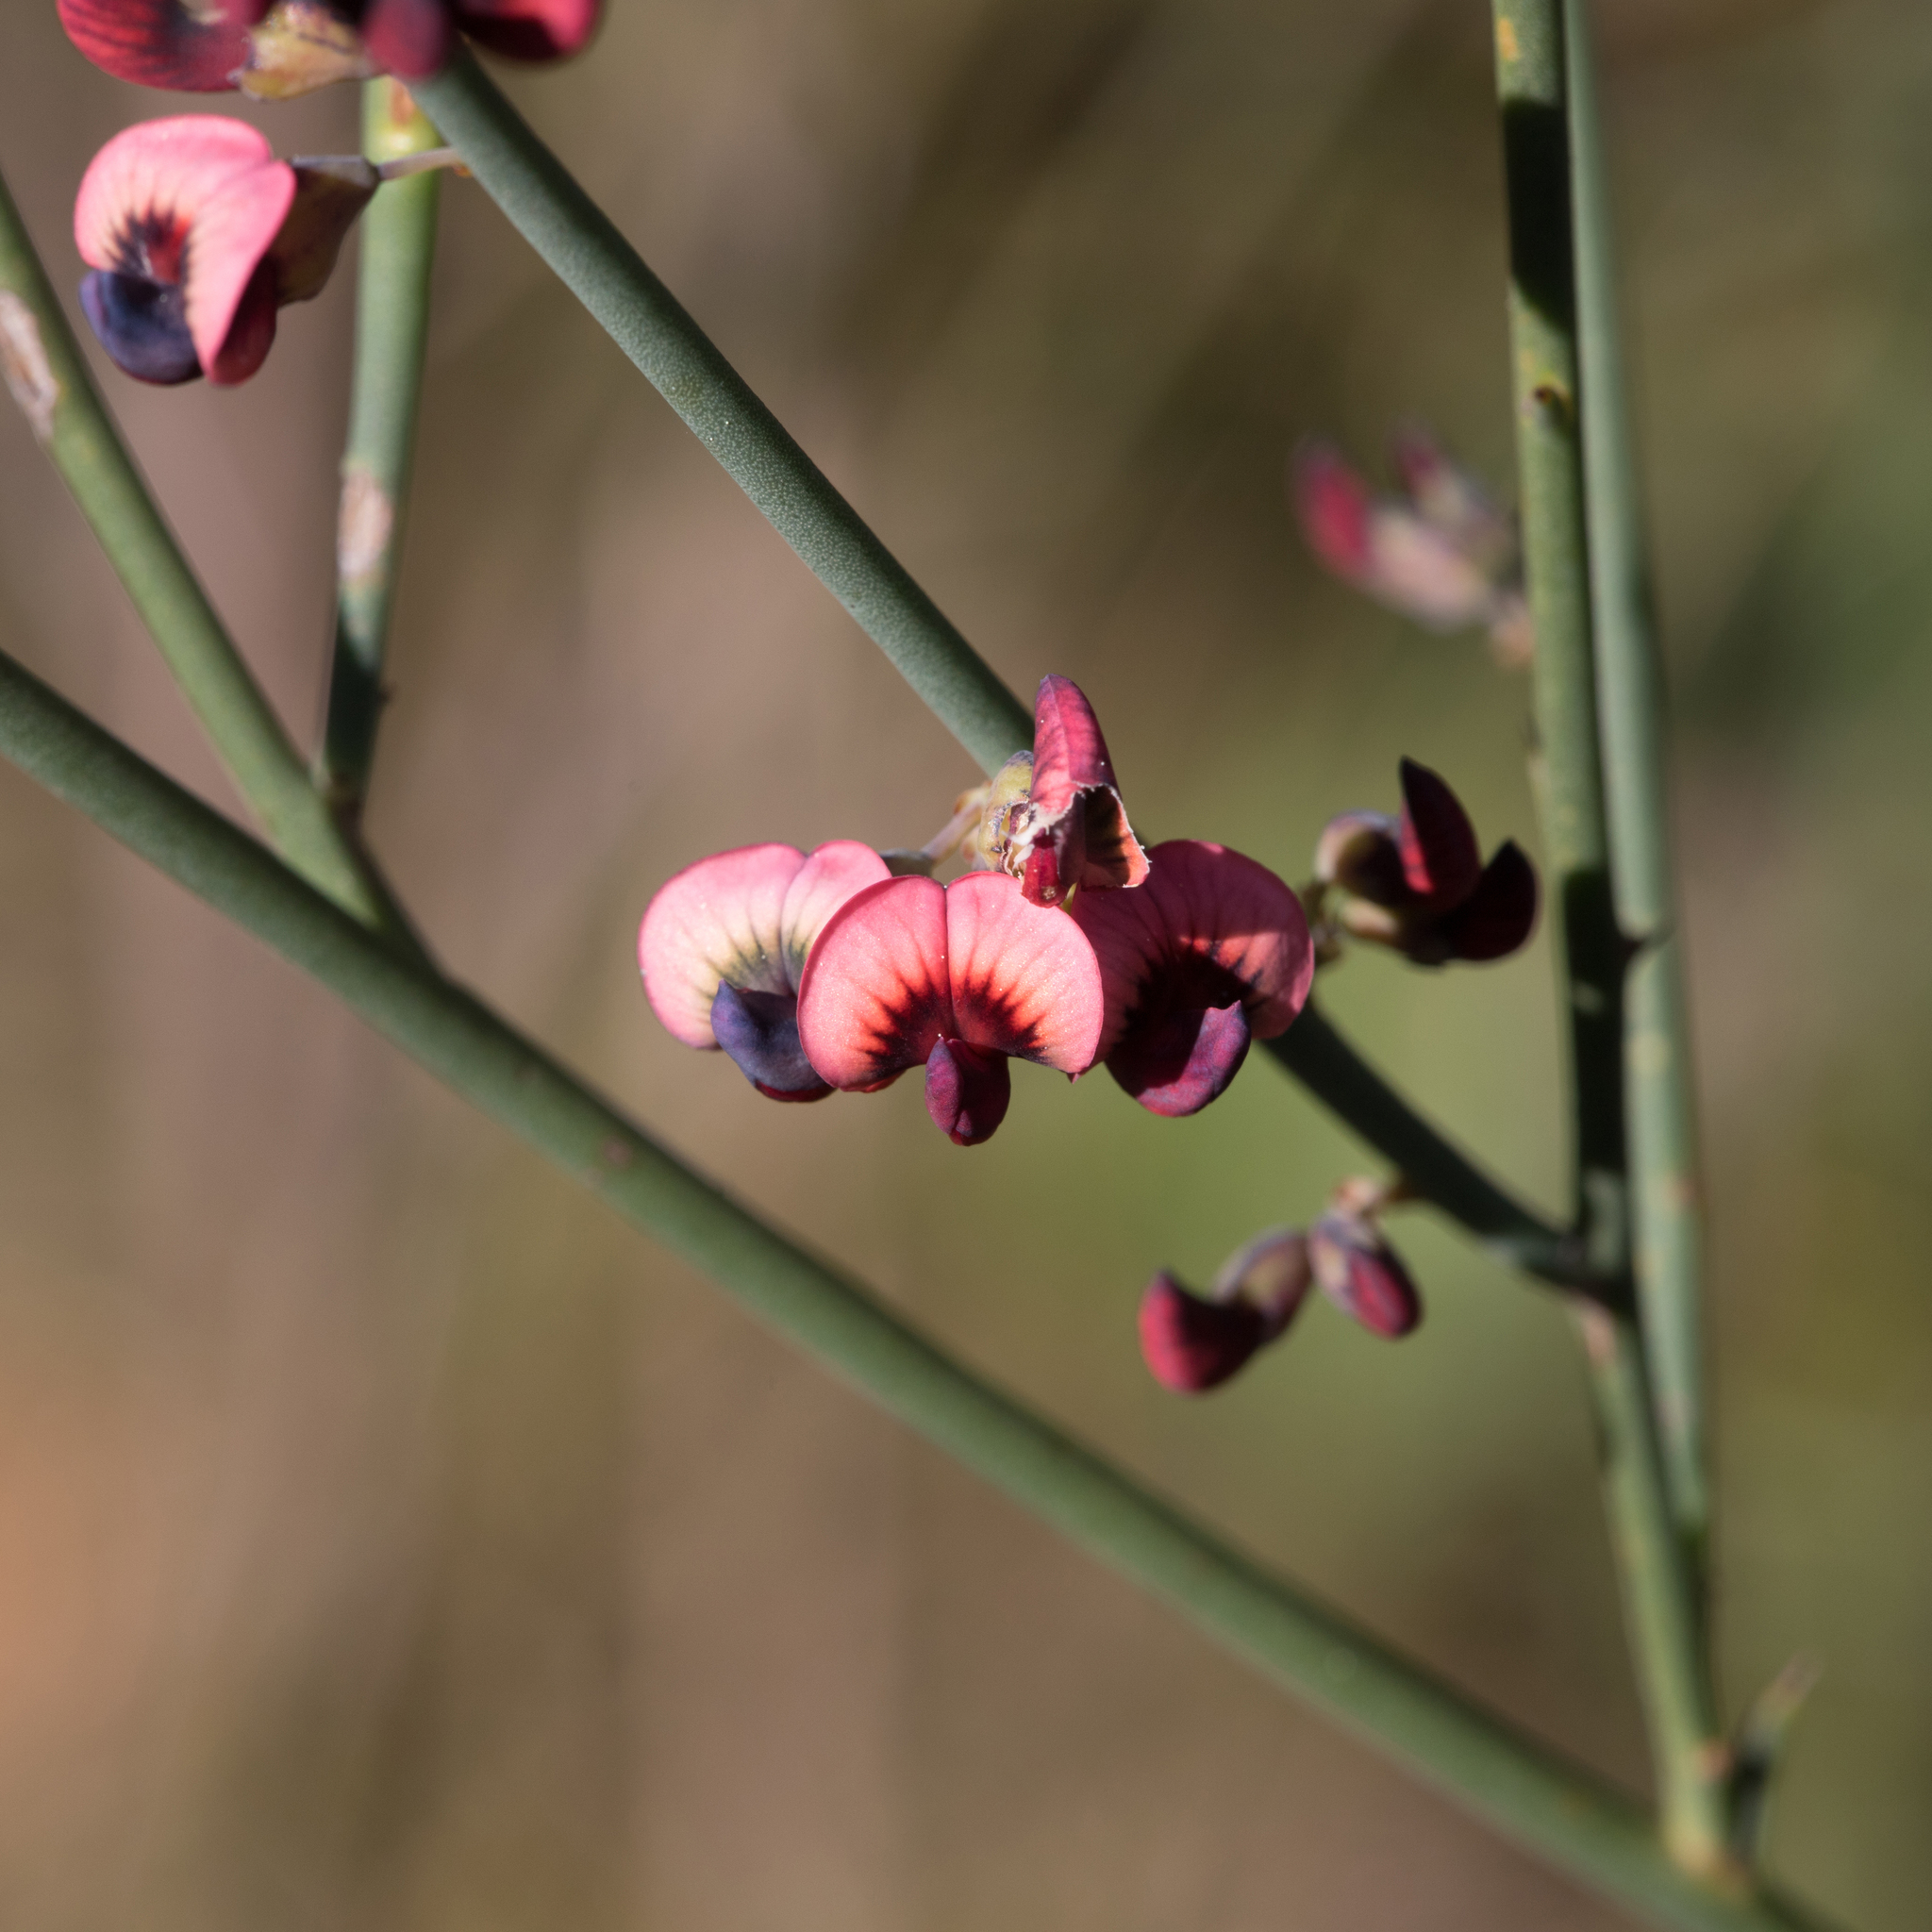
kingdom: Plantae
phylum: Tracheophyta
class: Magnoliopsida
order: Fabales
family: Fabaceae
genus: Daviesia
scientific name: Daviesia brevifolia
